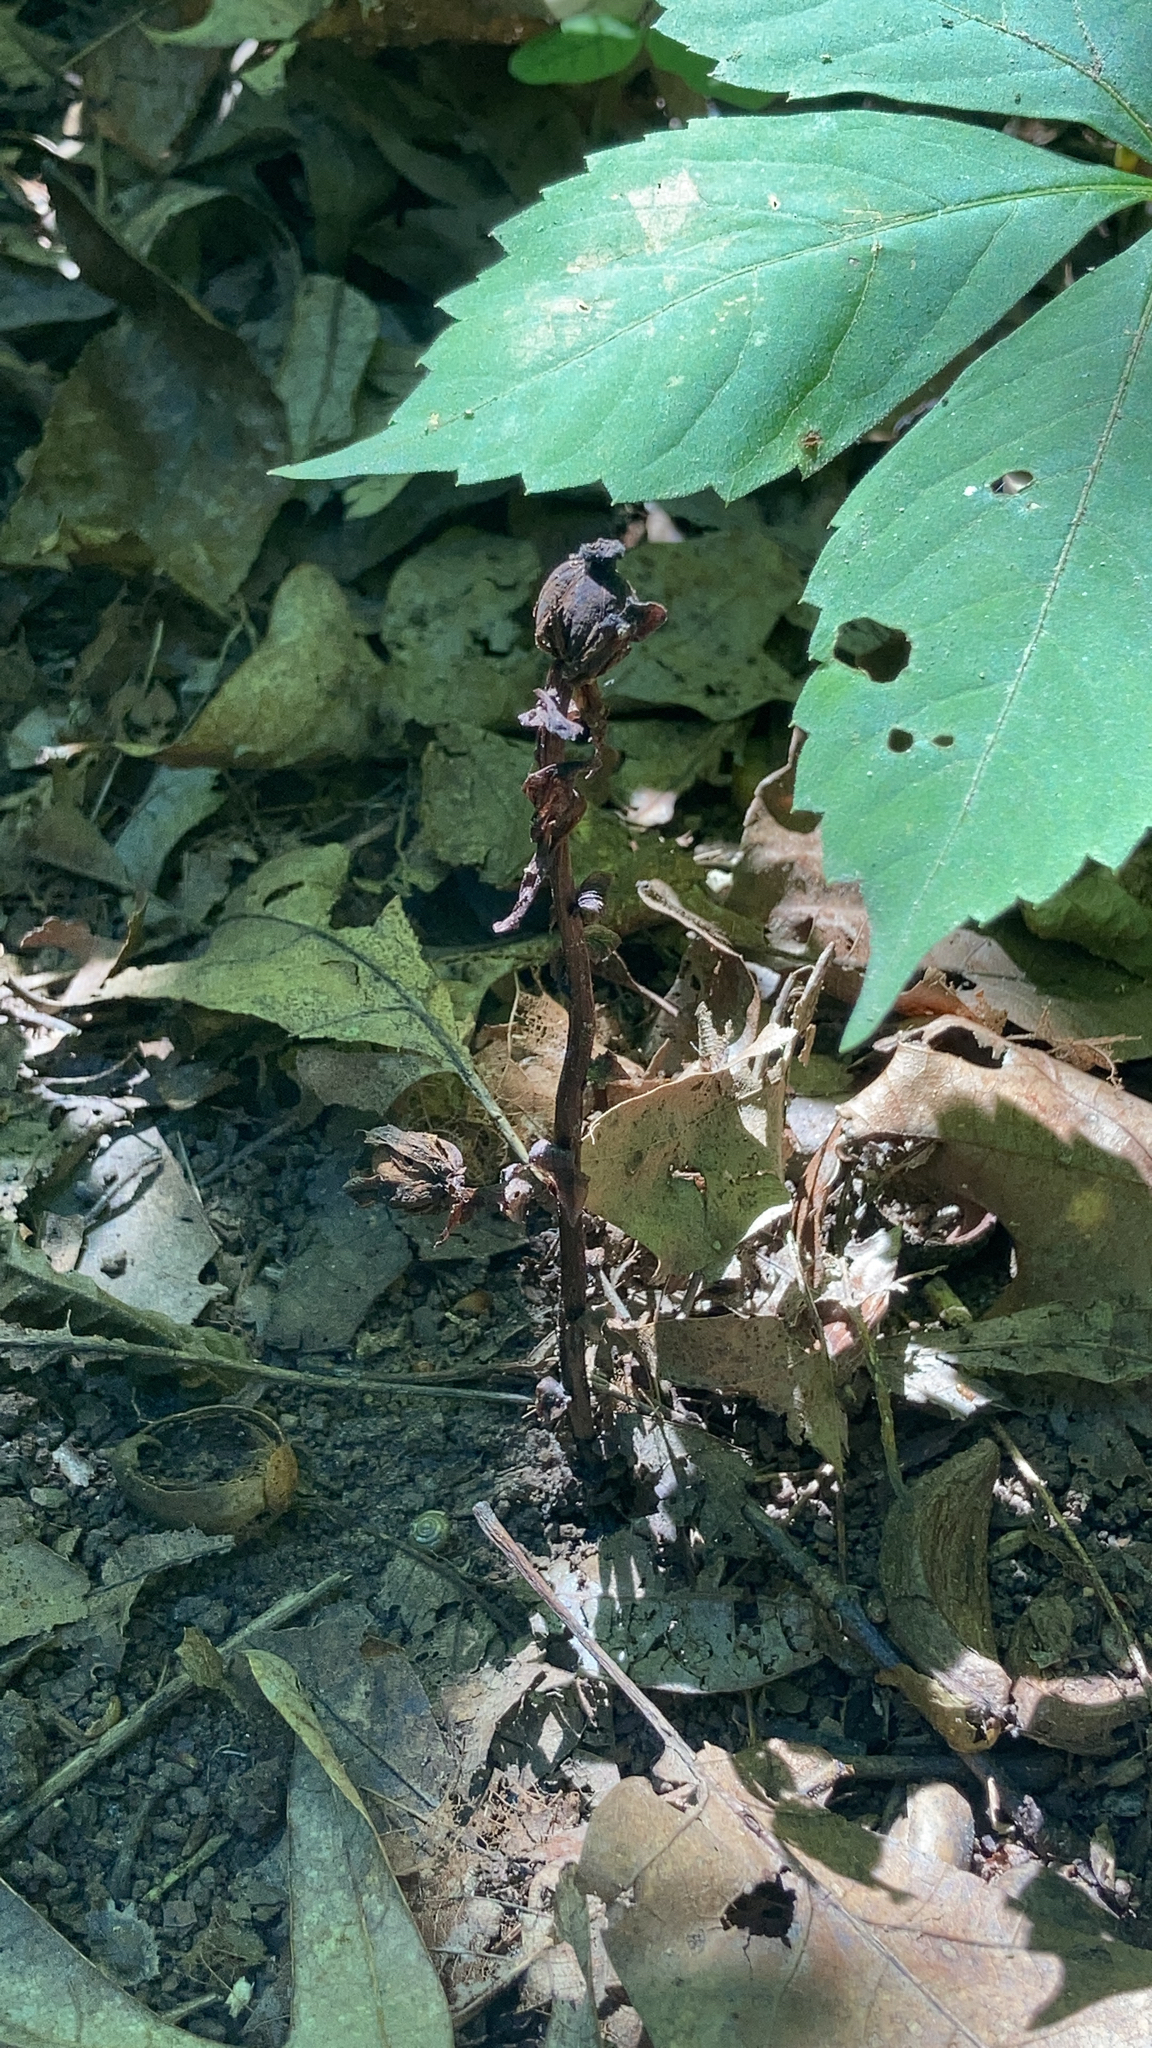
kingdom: Plantae
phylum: Tracheophyta
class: Magnoliopsida
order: Ericales
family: Ericaceae
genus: Monotropa
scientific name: Monotropa uniflora
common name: Convulsion root
